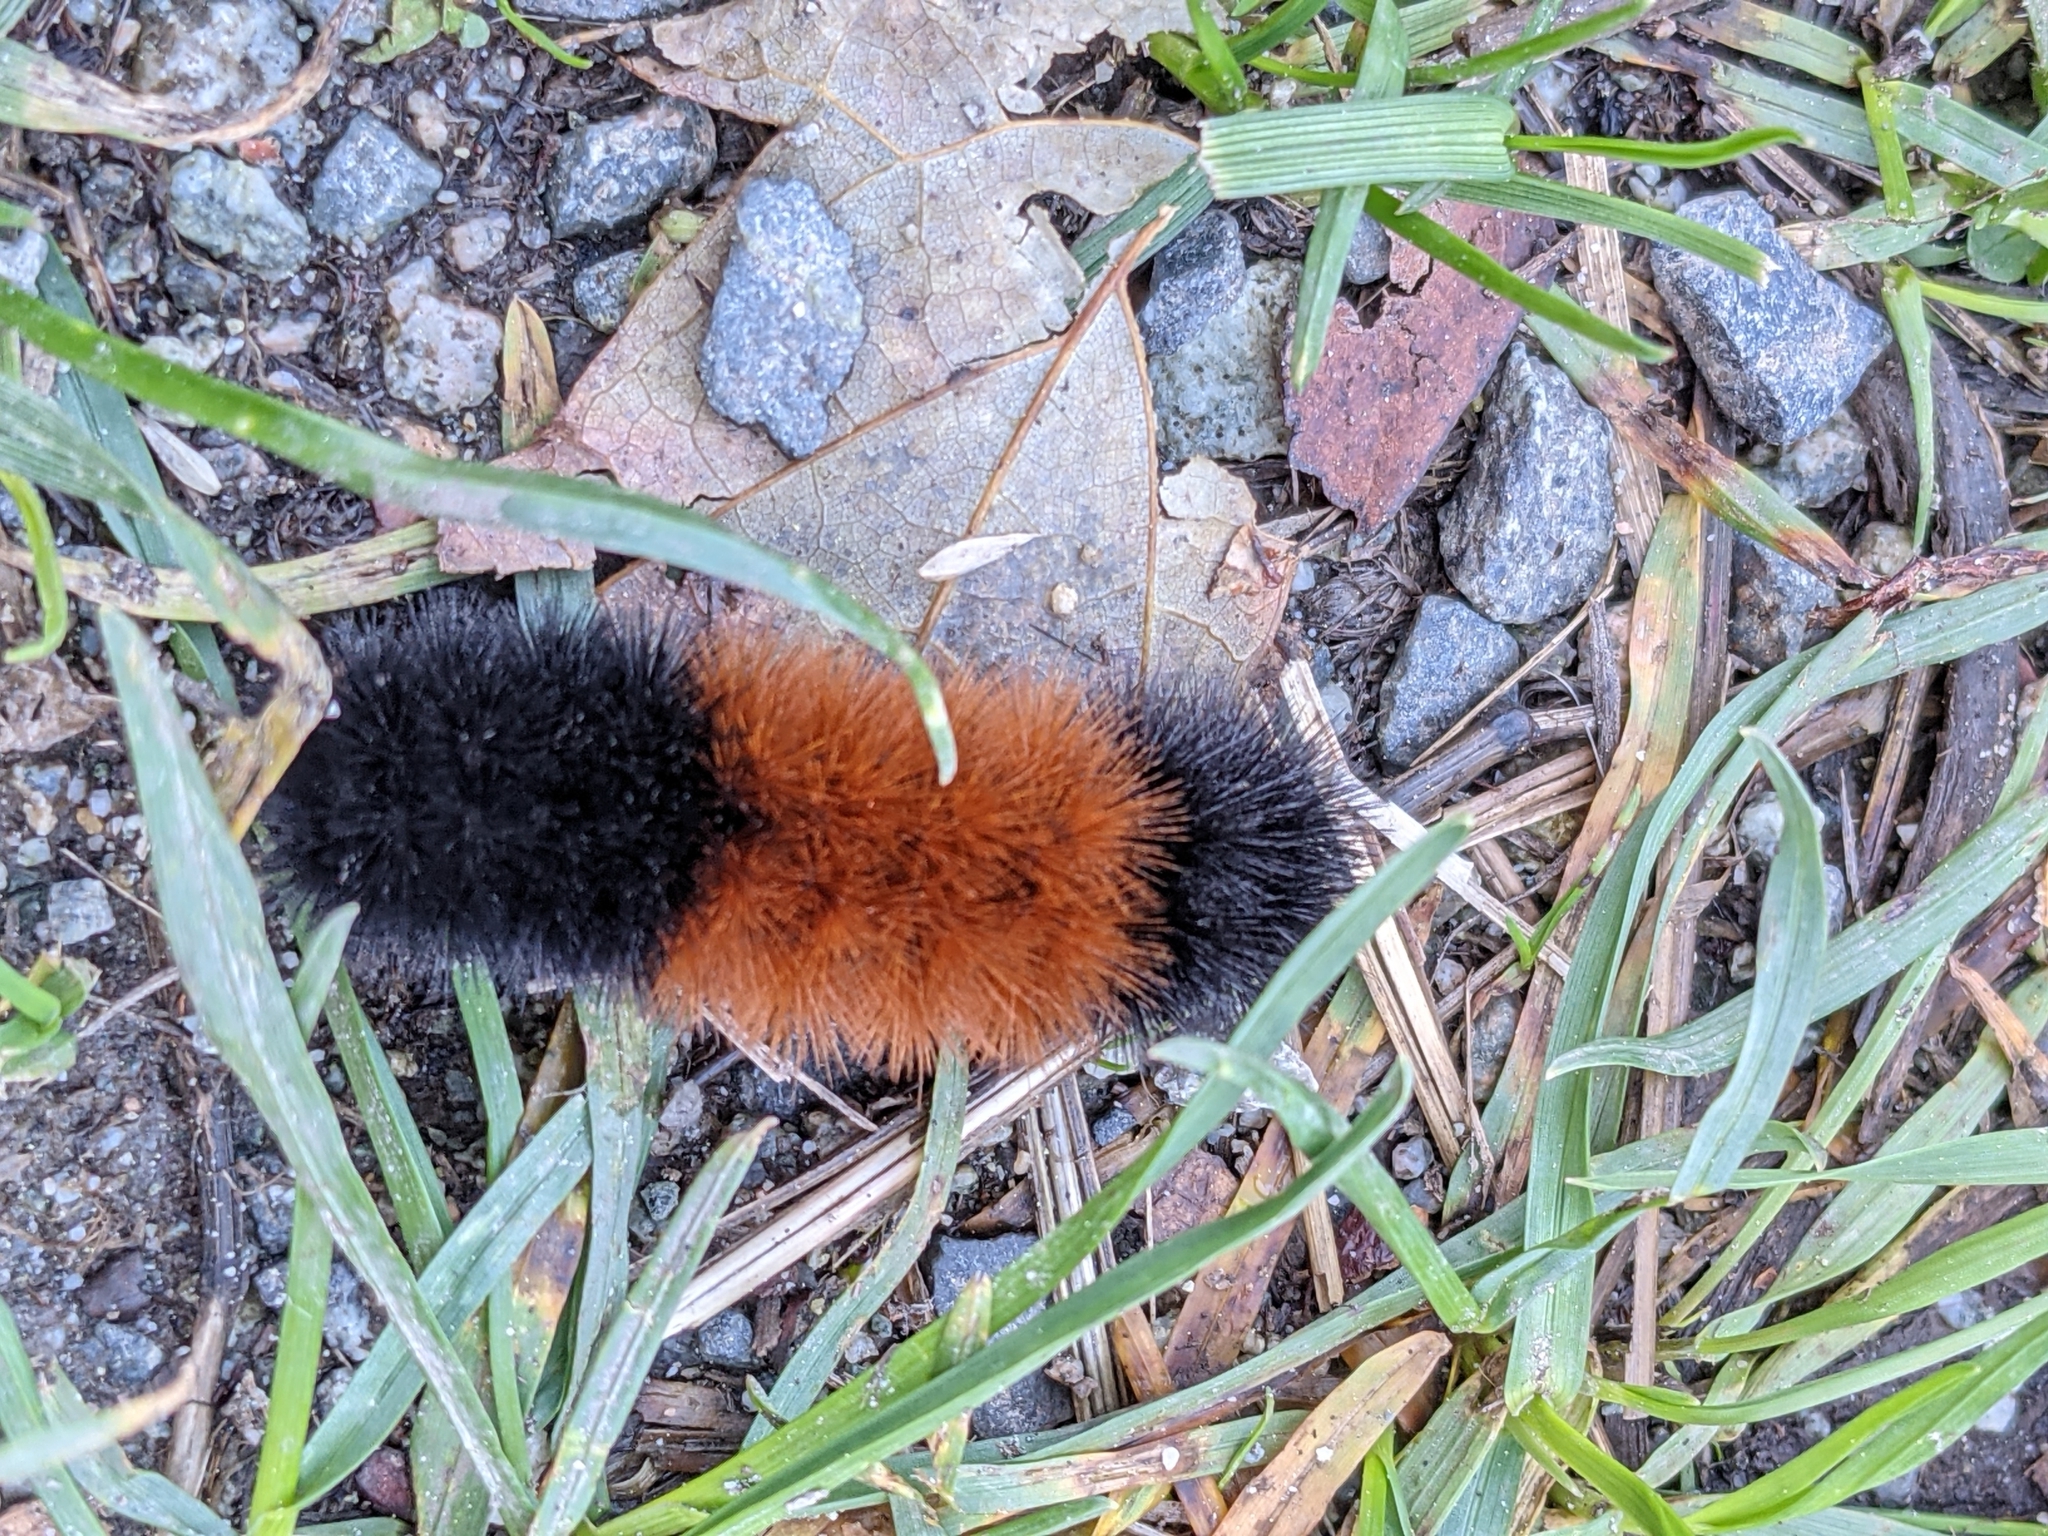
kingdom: Animalia
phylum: Arthropoda
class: Insecta
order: Lepidoptera
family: Erebidae
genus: Pyrrharctia
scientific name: Pyrrharctia isabella
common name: Isabella tiger moth
